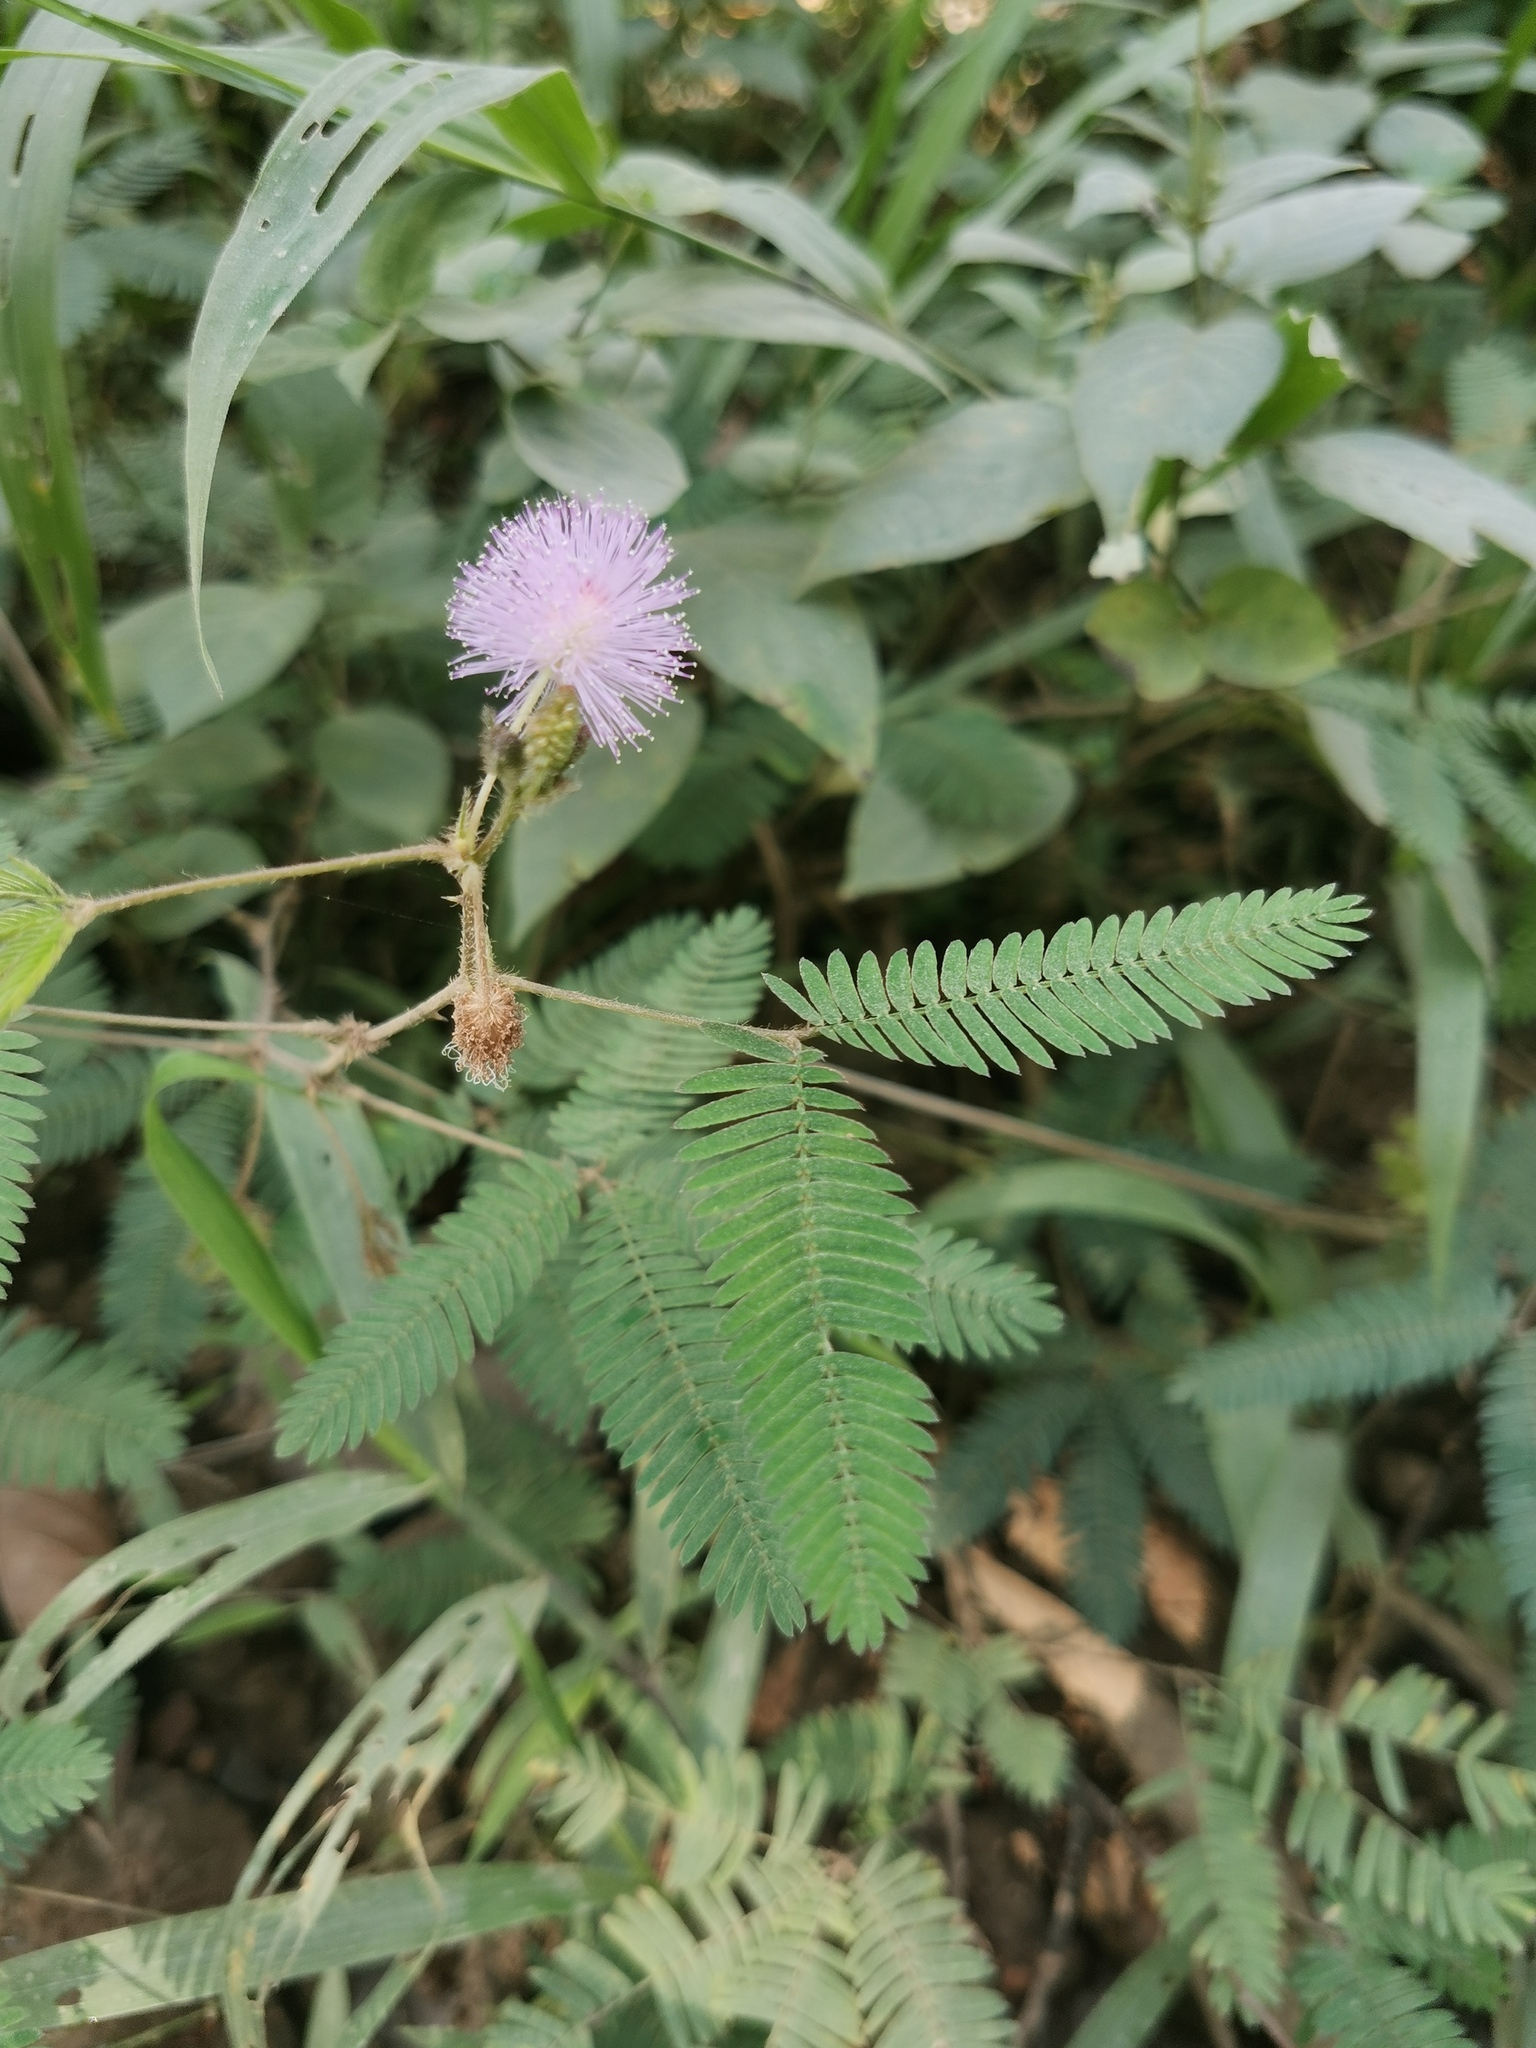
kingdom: Plantae
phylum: Tracheophyta
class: Magnoliopsida
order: Fabales
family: Fabaceae
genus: Mimosa
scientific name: Mimosa pudica
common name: Sensitive plant
